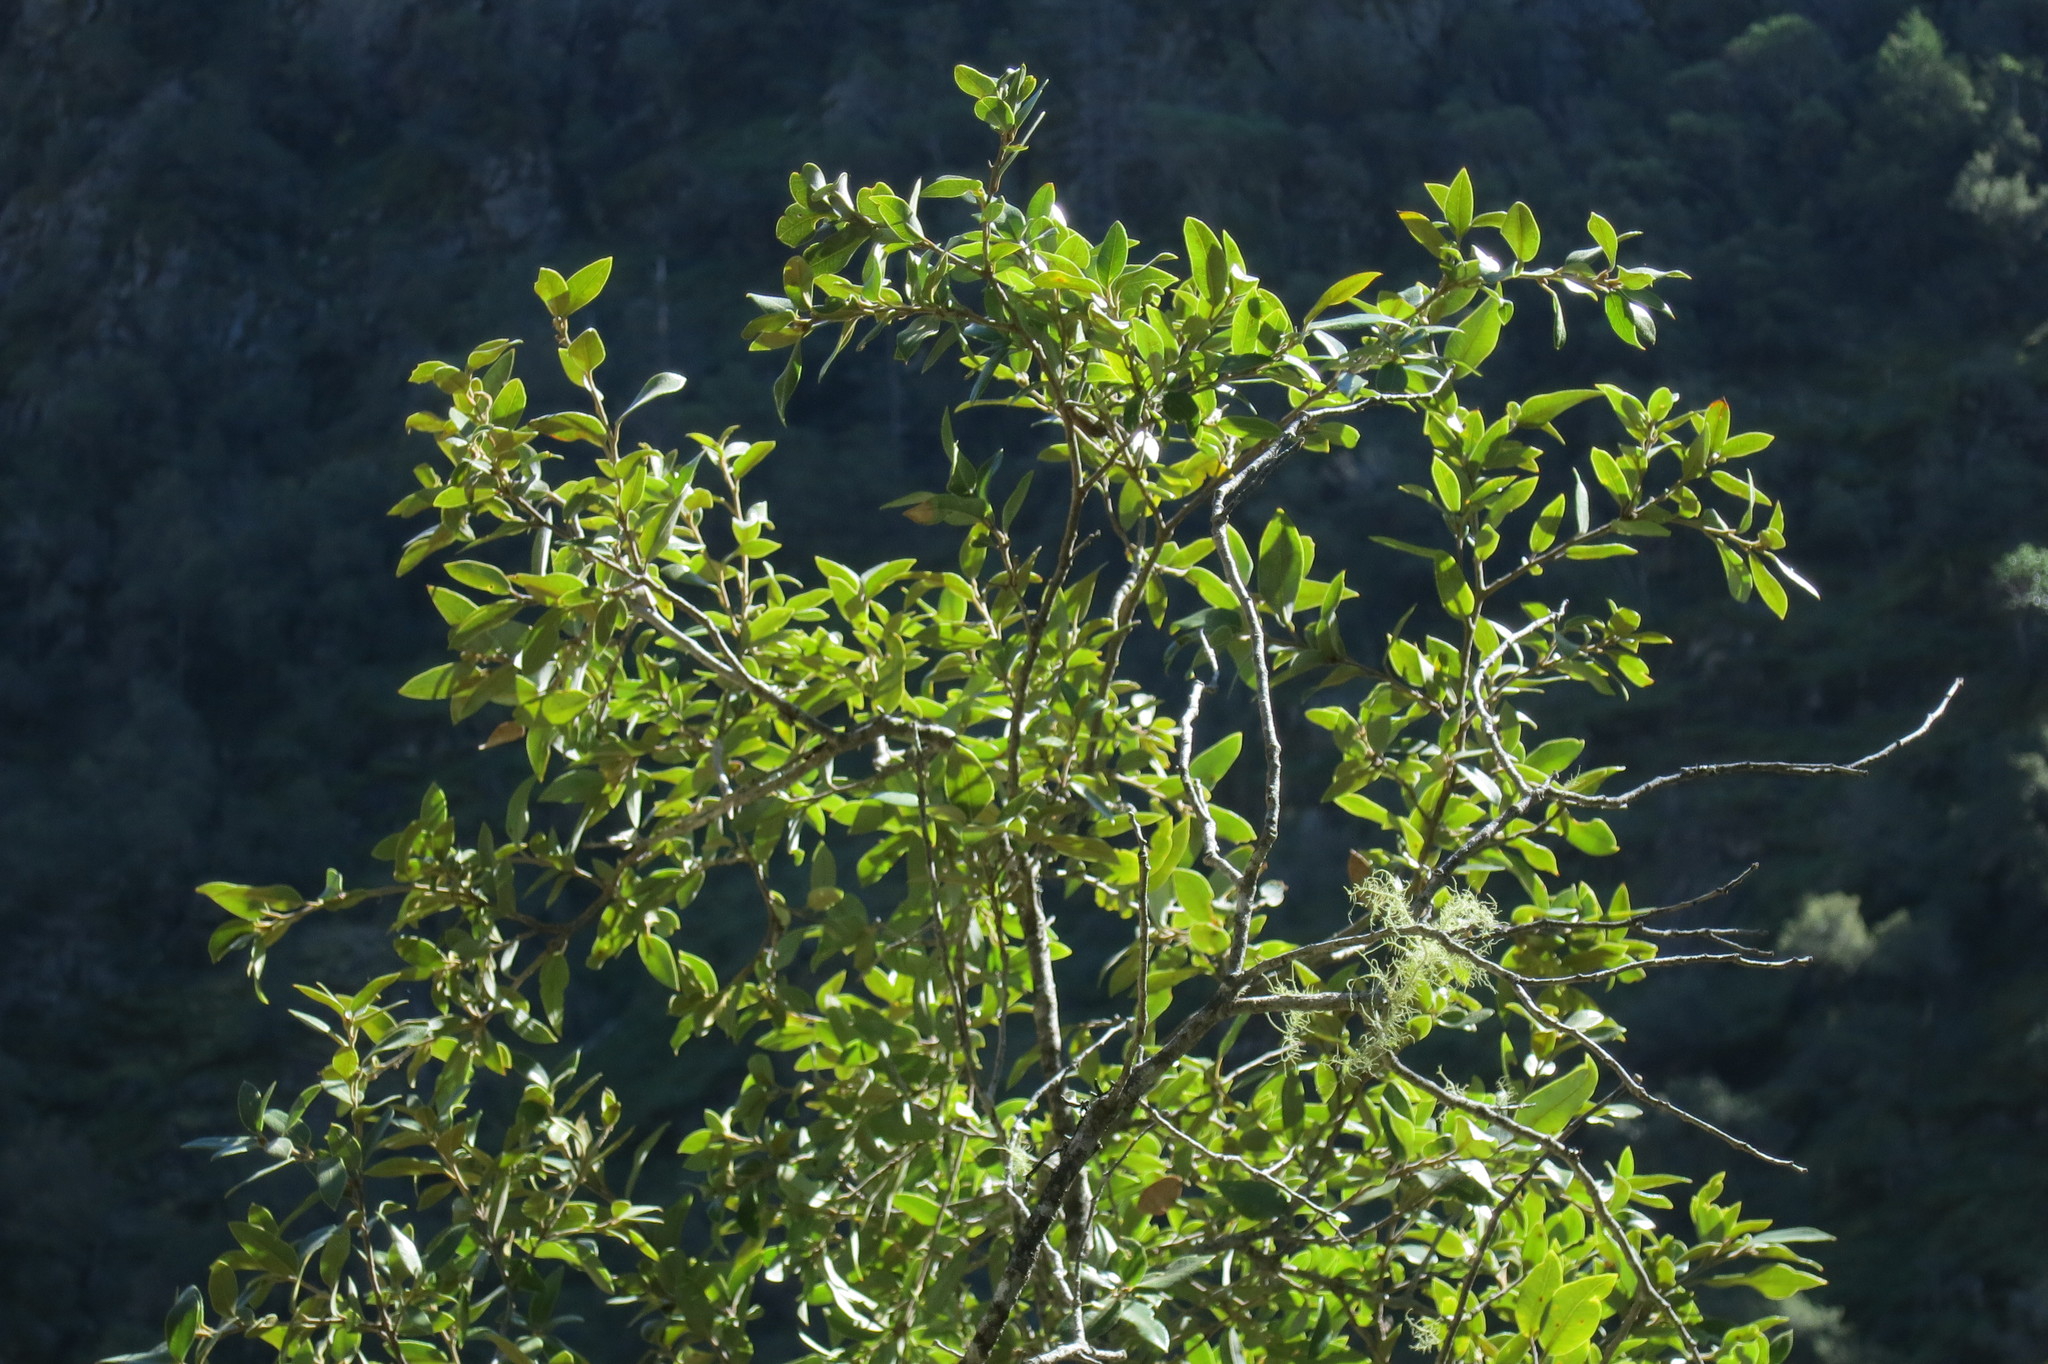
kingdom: Plantae
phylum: Tracheophyta
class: Magnoliopsida
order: Fagales
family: Fagaceae
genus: Quercus
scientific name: Quercus chrysolepis
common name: Canyon live oak
